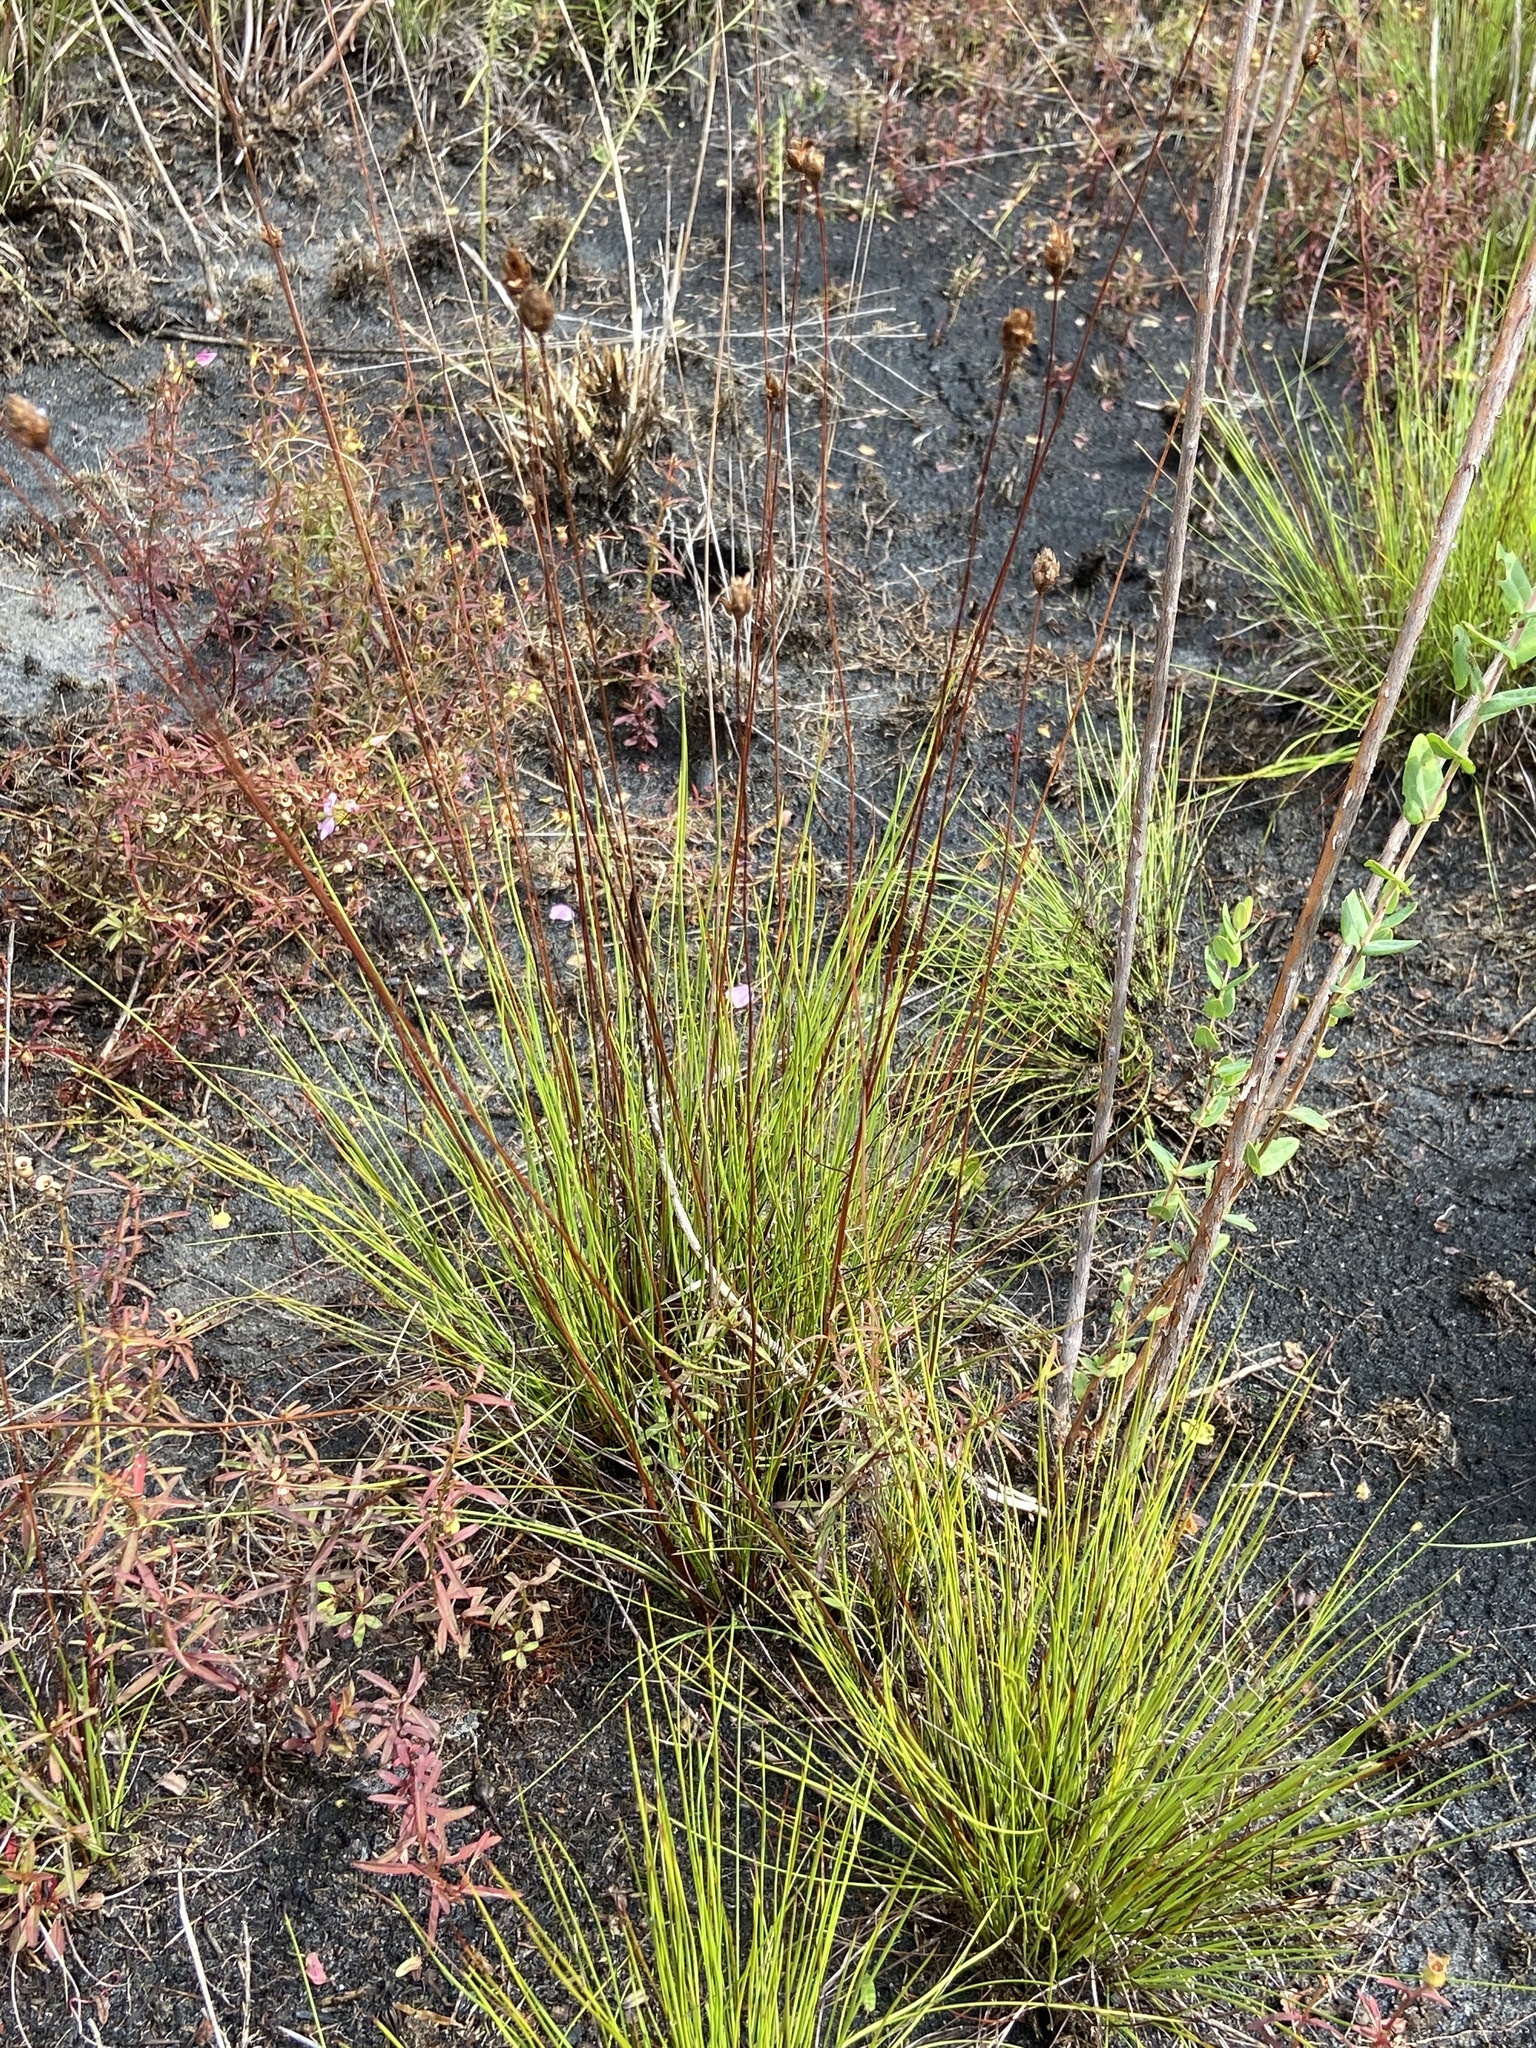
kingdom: Plantae
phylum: Tracheophyta
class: Liliopsida
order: Poales
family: Xyridaceae
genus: Xyris
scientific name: Xyris stenotera
